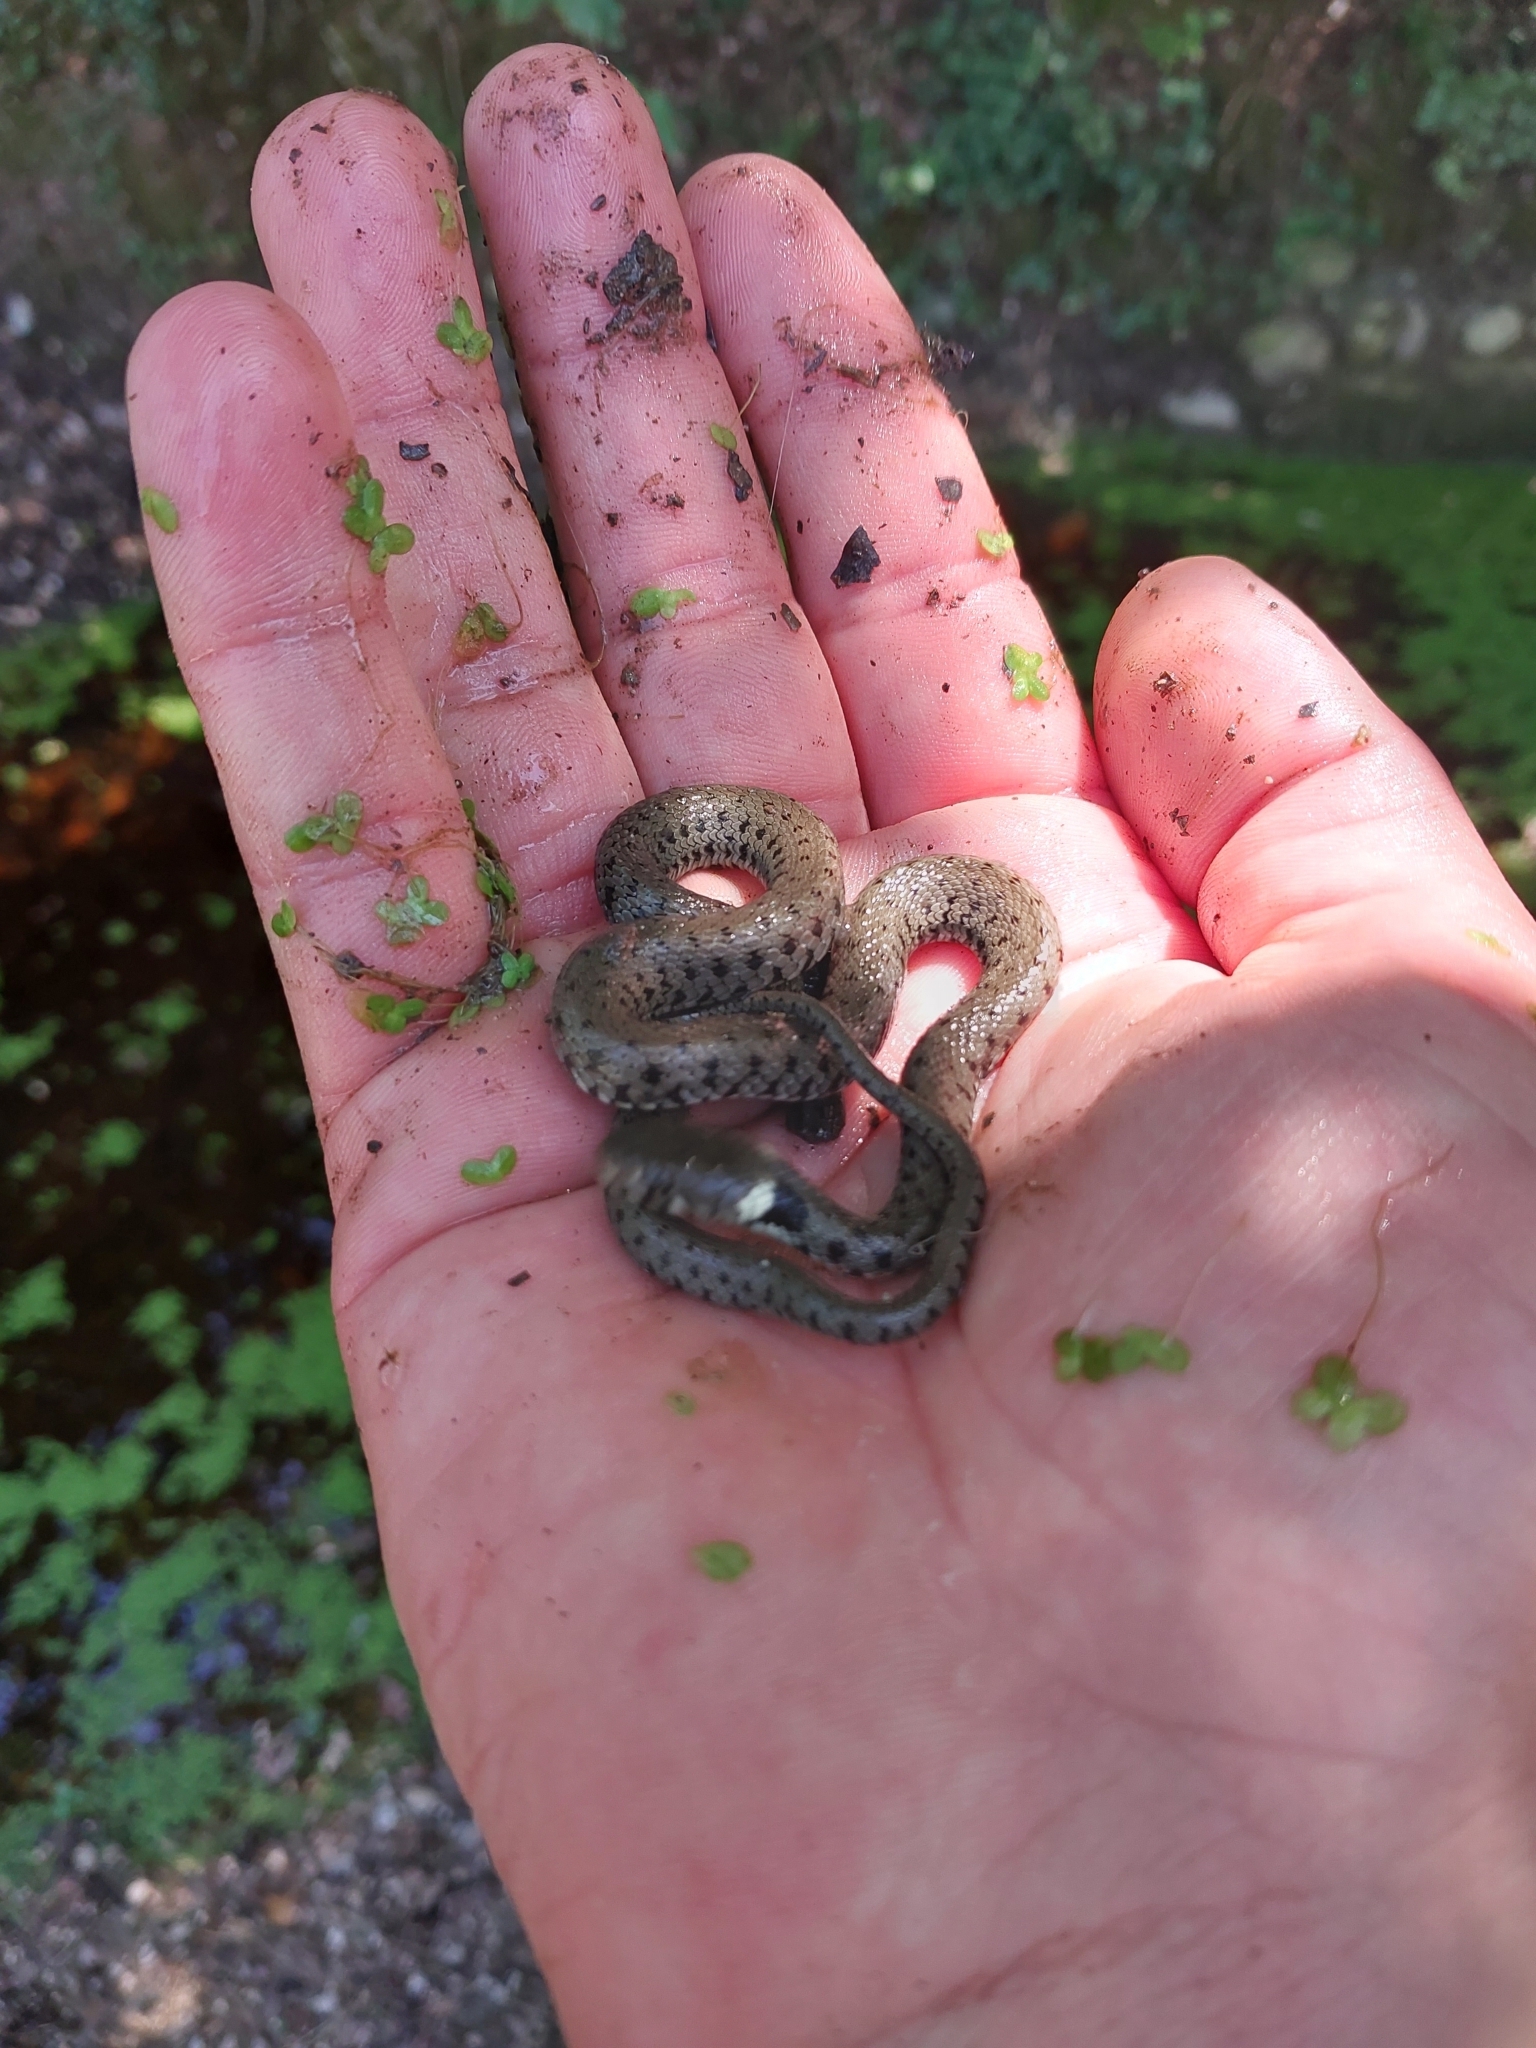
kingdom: Animalia
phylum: Chordata
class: Squamata
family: Colubridae
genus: Natrix
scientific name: Natrix helvetica
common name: Banded grass snake
